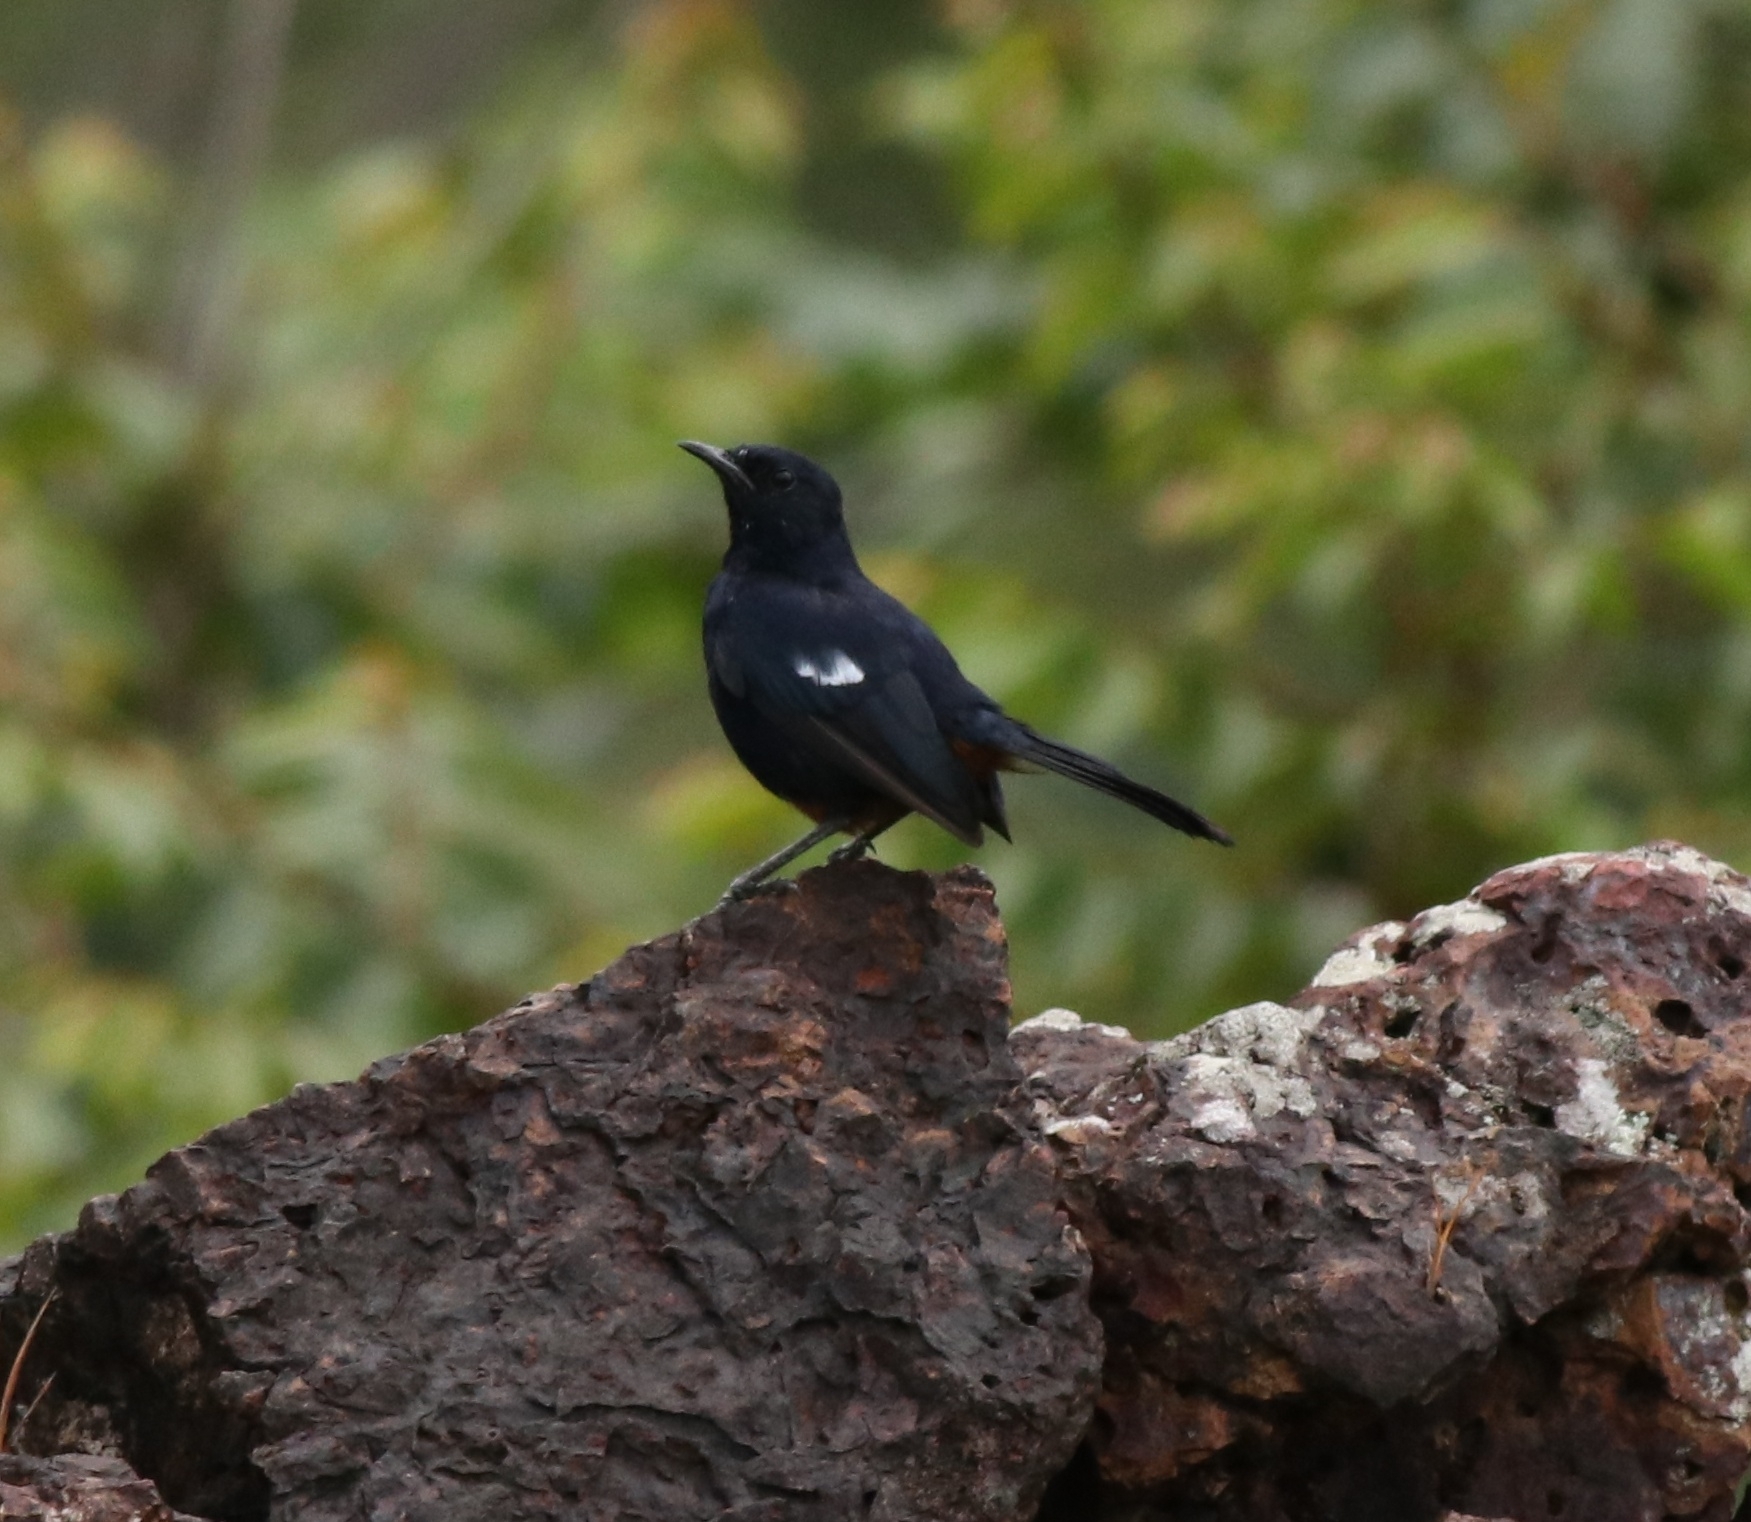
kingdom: Animalia
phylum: Chordata
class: Aves
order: Passeriformes
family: Muscicapidae
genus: Saxicoloides
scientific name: Saxicoloides fulicatus
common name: Indian robin
